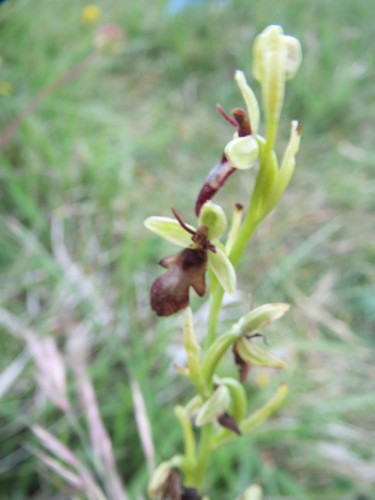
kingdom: Plantae
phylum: Tracheophyta
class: Liliopsida
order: Asparagales
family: Orchidaceae
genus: Ophrys
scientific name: Ophrys insectifera
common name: Fly orchid
